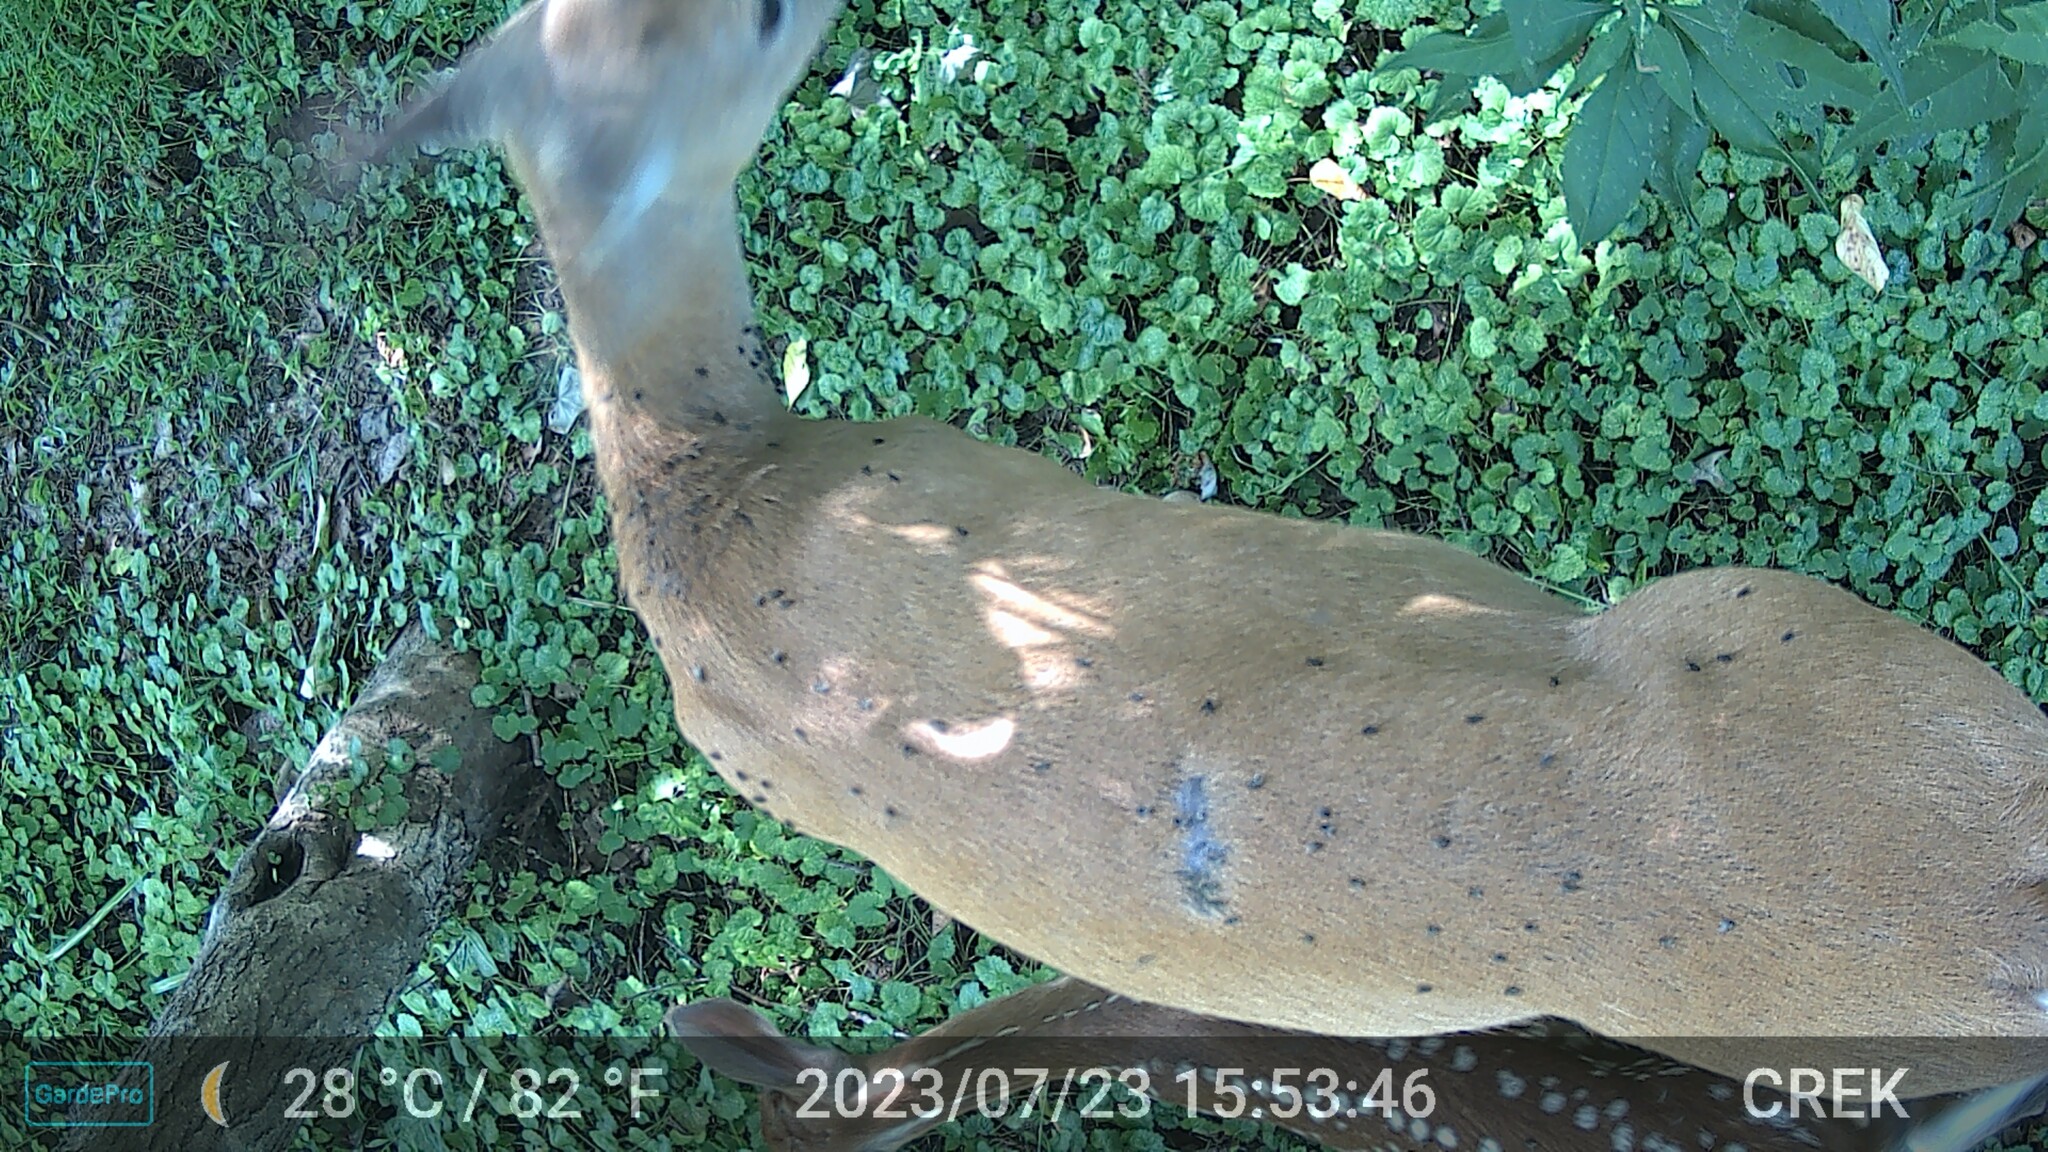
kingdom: Animalia
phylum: Chordata
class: Mammalia
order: Artiodactyla
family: Cervidae
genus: Odocoileus
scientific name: Odocoileus virginianus
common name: White-tailed deer
